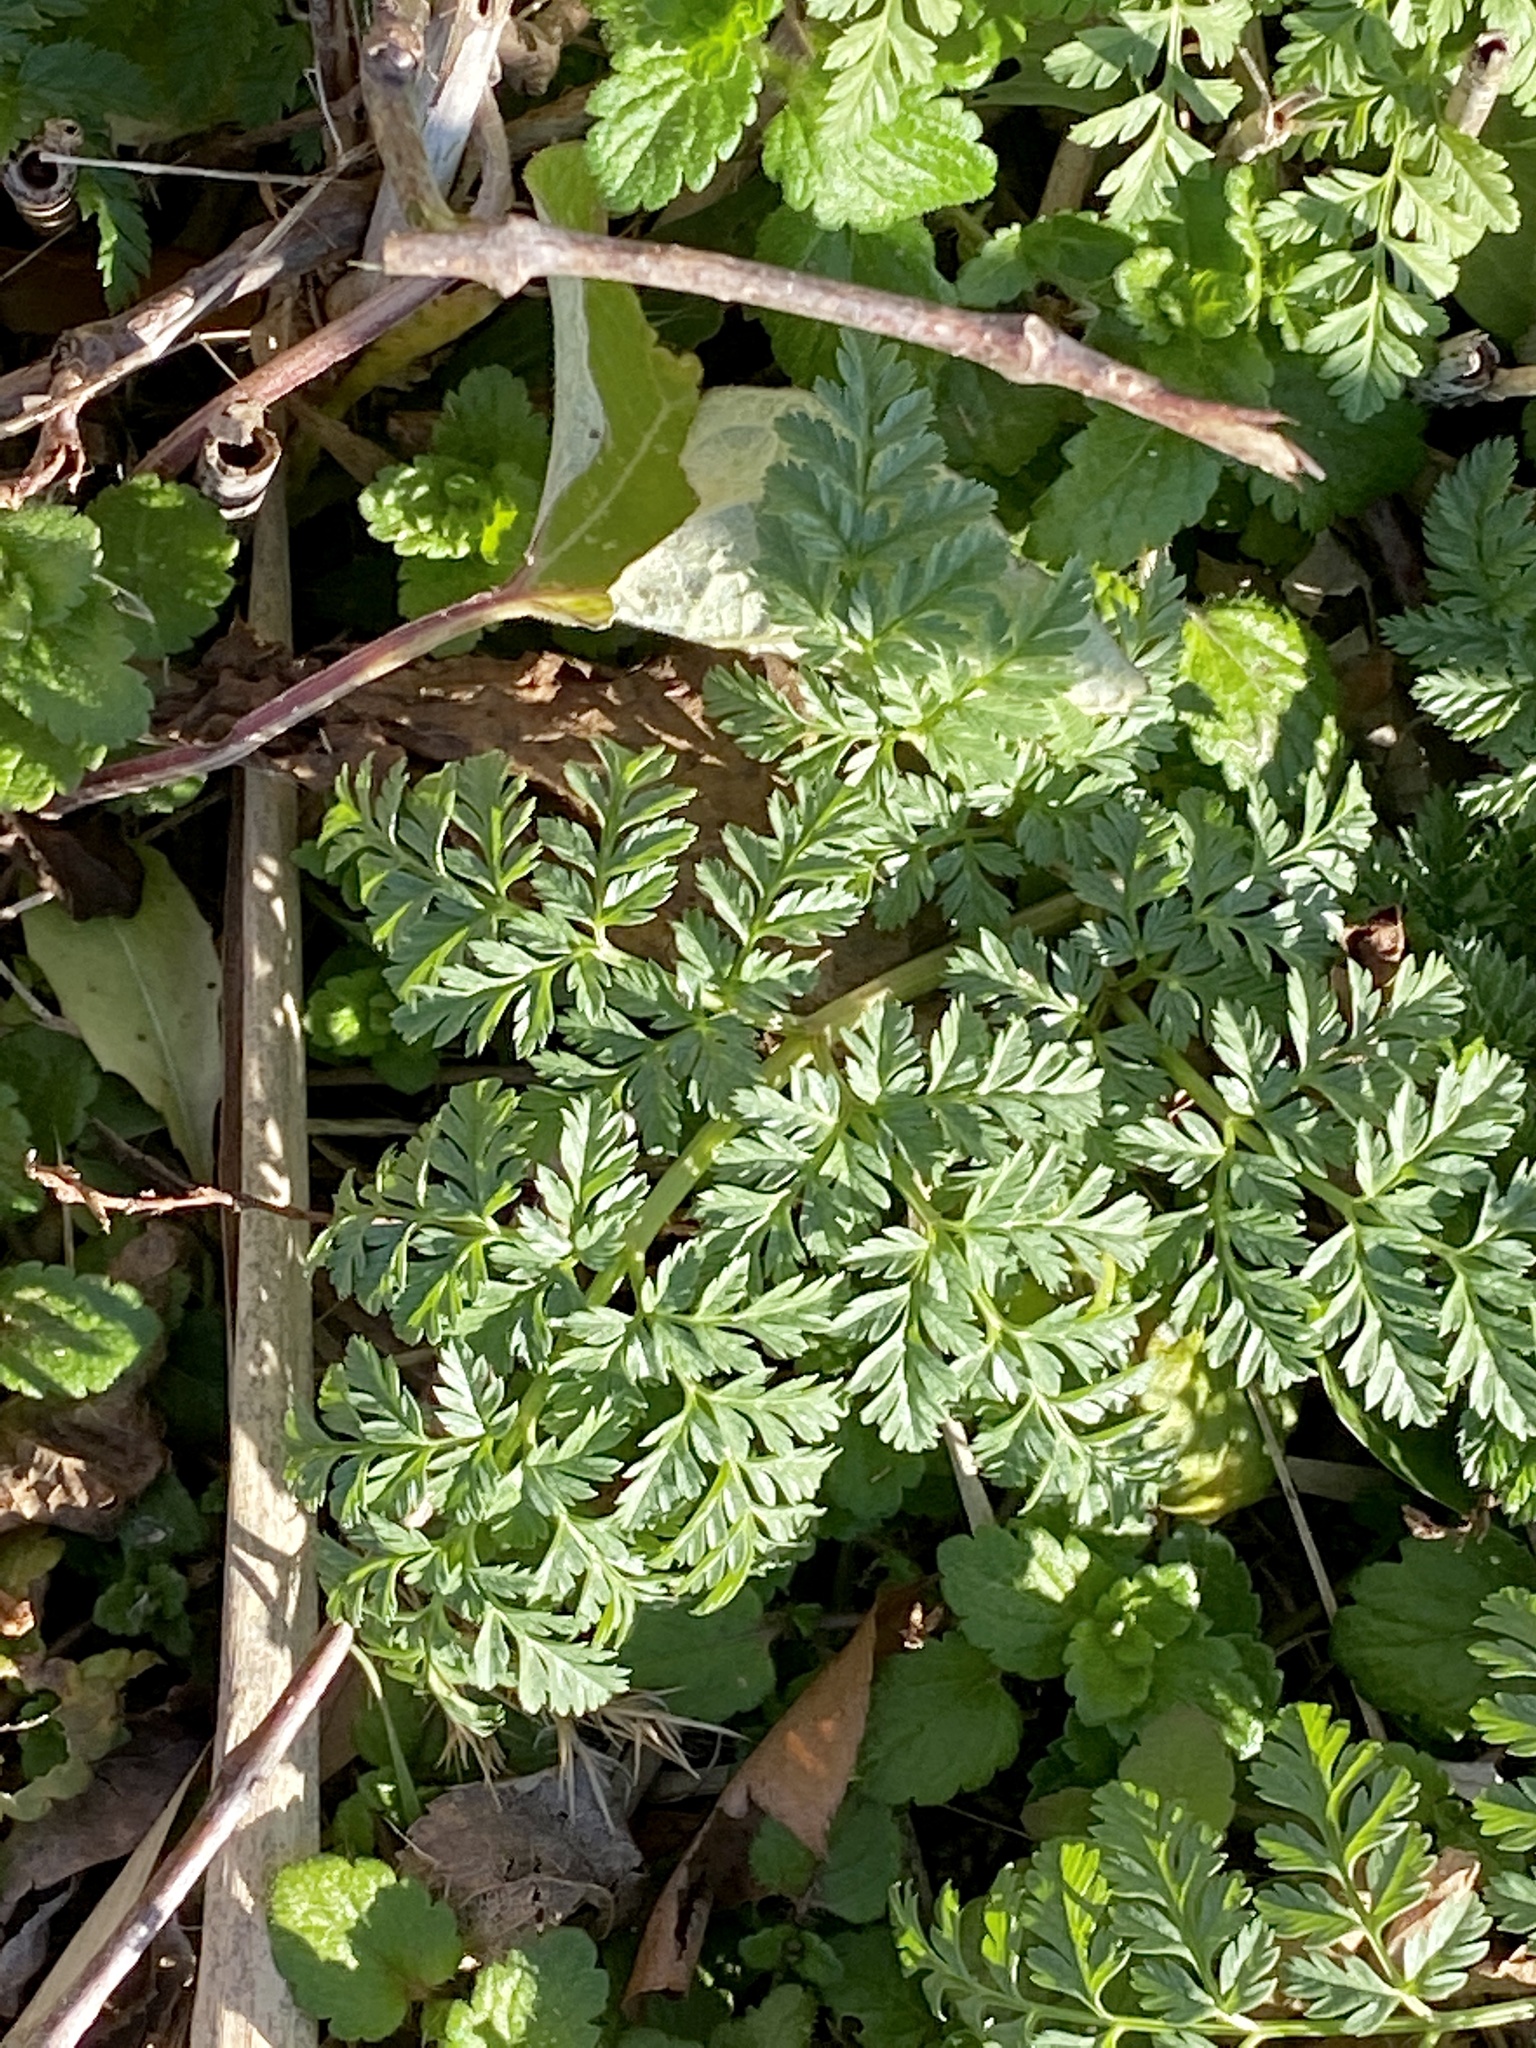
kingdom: Plantae
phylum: Tracheophyta
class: Magnoliopsida
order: Apiales
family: Apiaceae
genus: Conium
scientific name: Conium maculatum
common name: Hemlock
